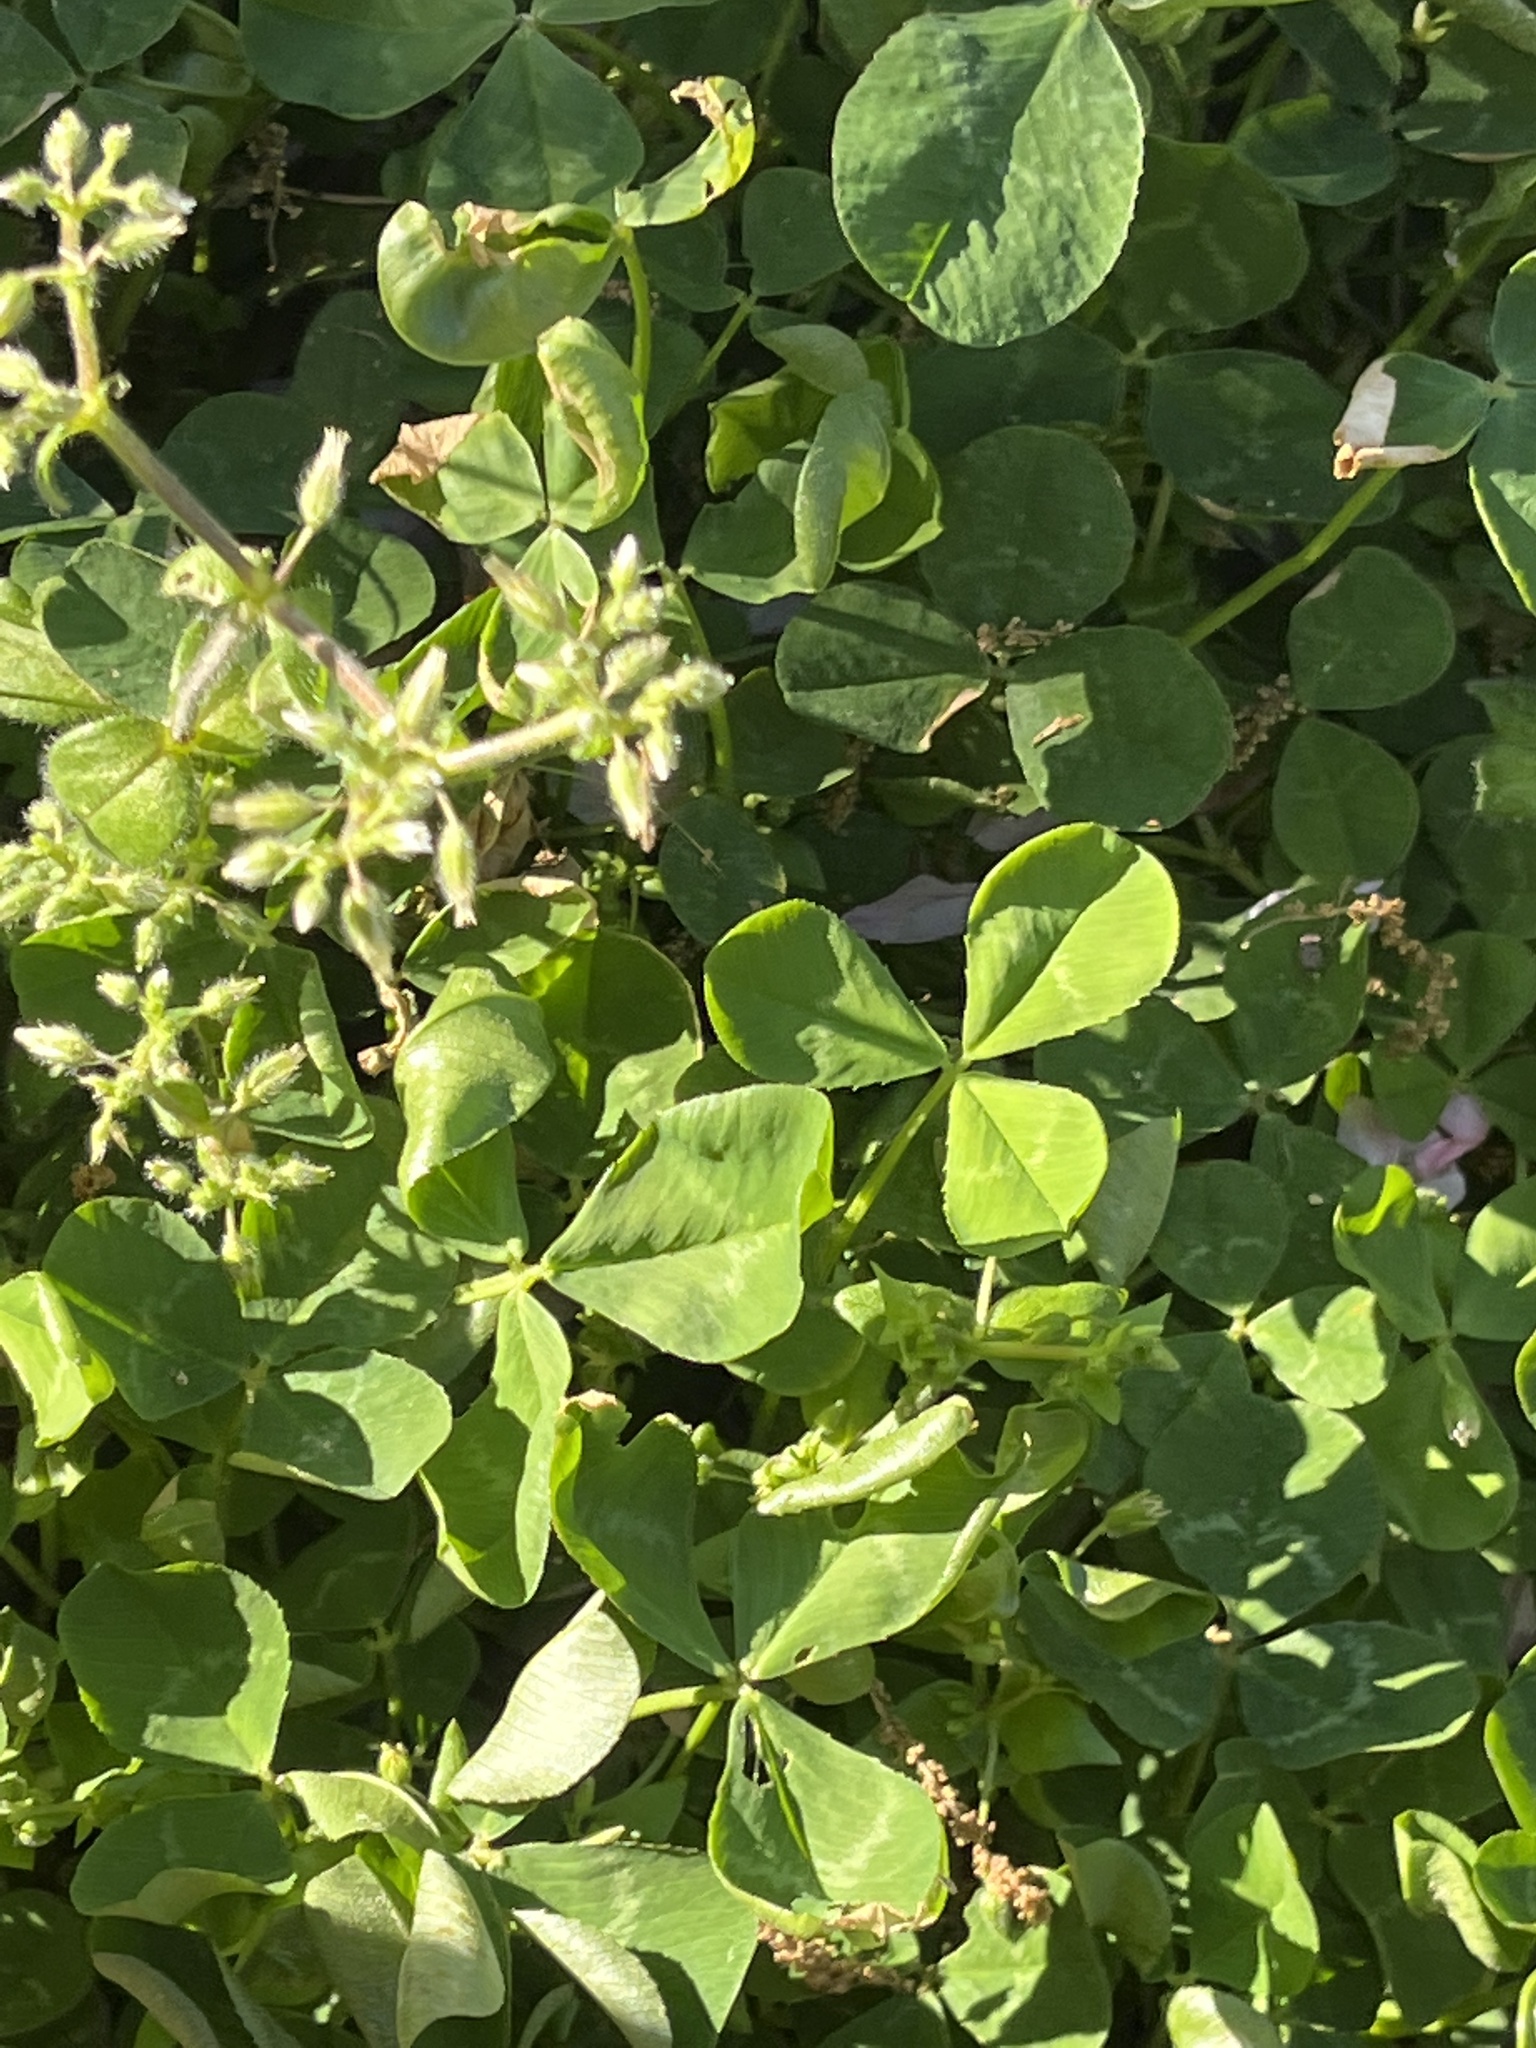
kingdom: Plantae
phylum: Tracheophyta
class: Magnoliopsida
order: Fabales
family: Fabaceae
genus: Trifolium
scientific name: Trifolium repens
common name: White clover
